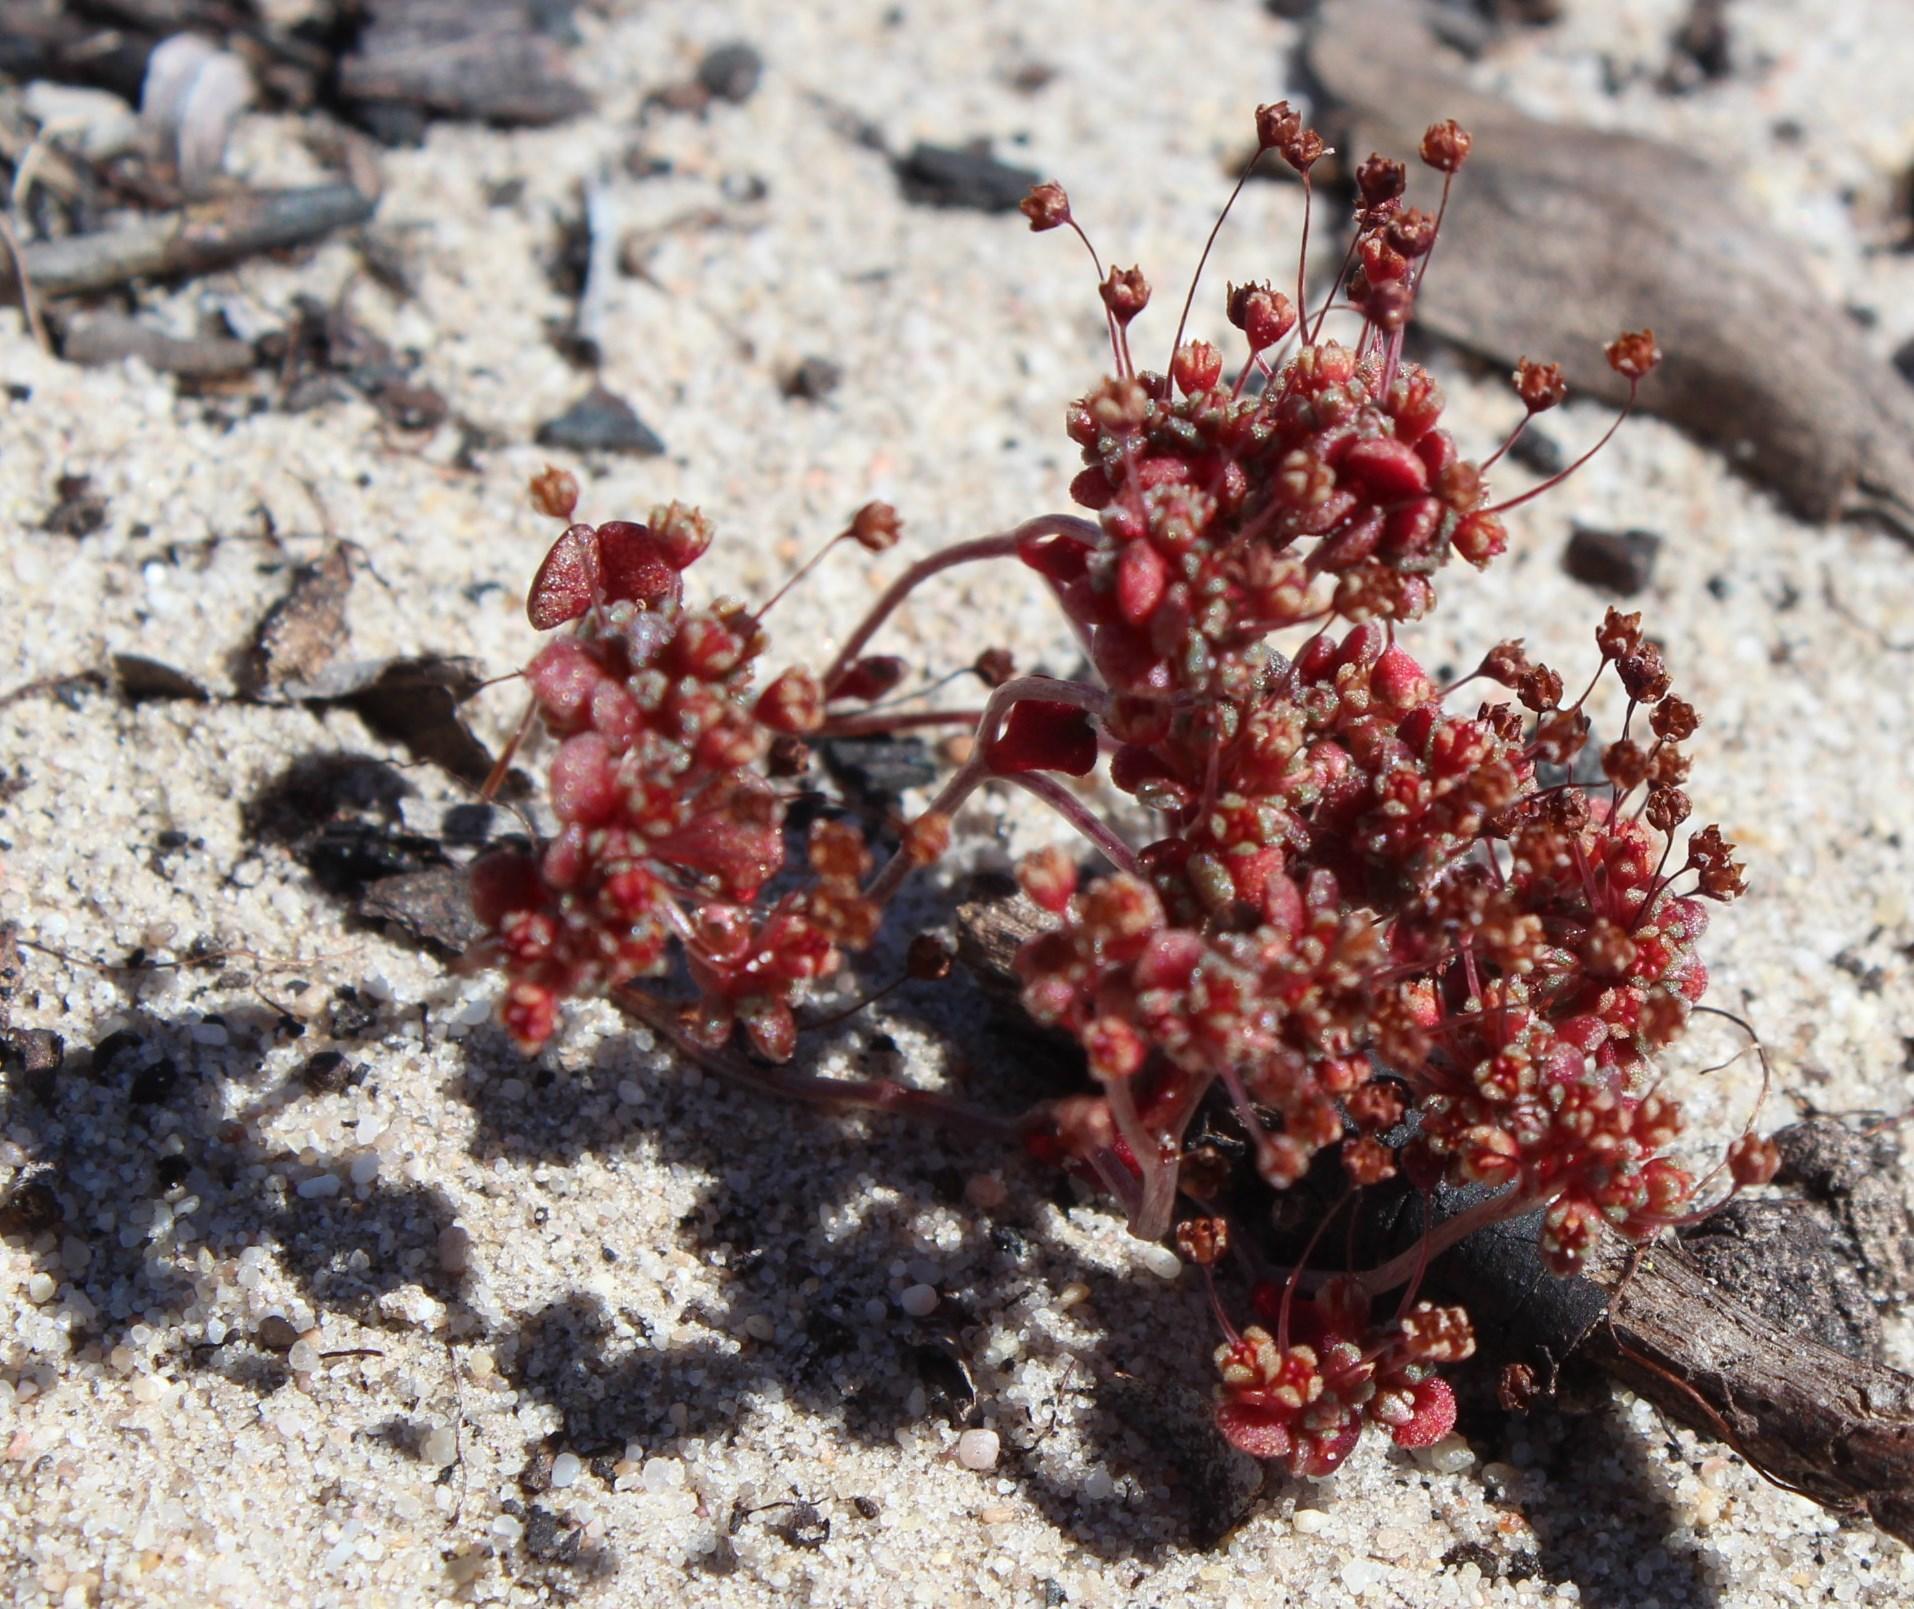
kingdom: Plantae
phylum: Tracheophyta
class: Magnoliopsida
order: Saxifragales
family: Crassulaceae
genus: Crassula
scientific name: Crassula umbellata
